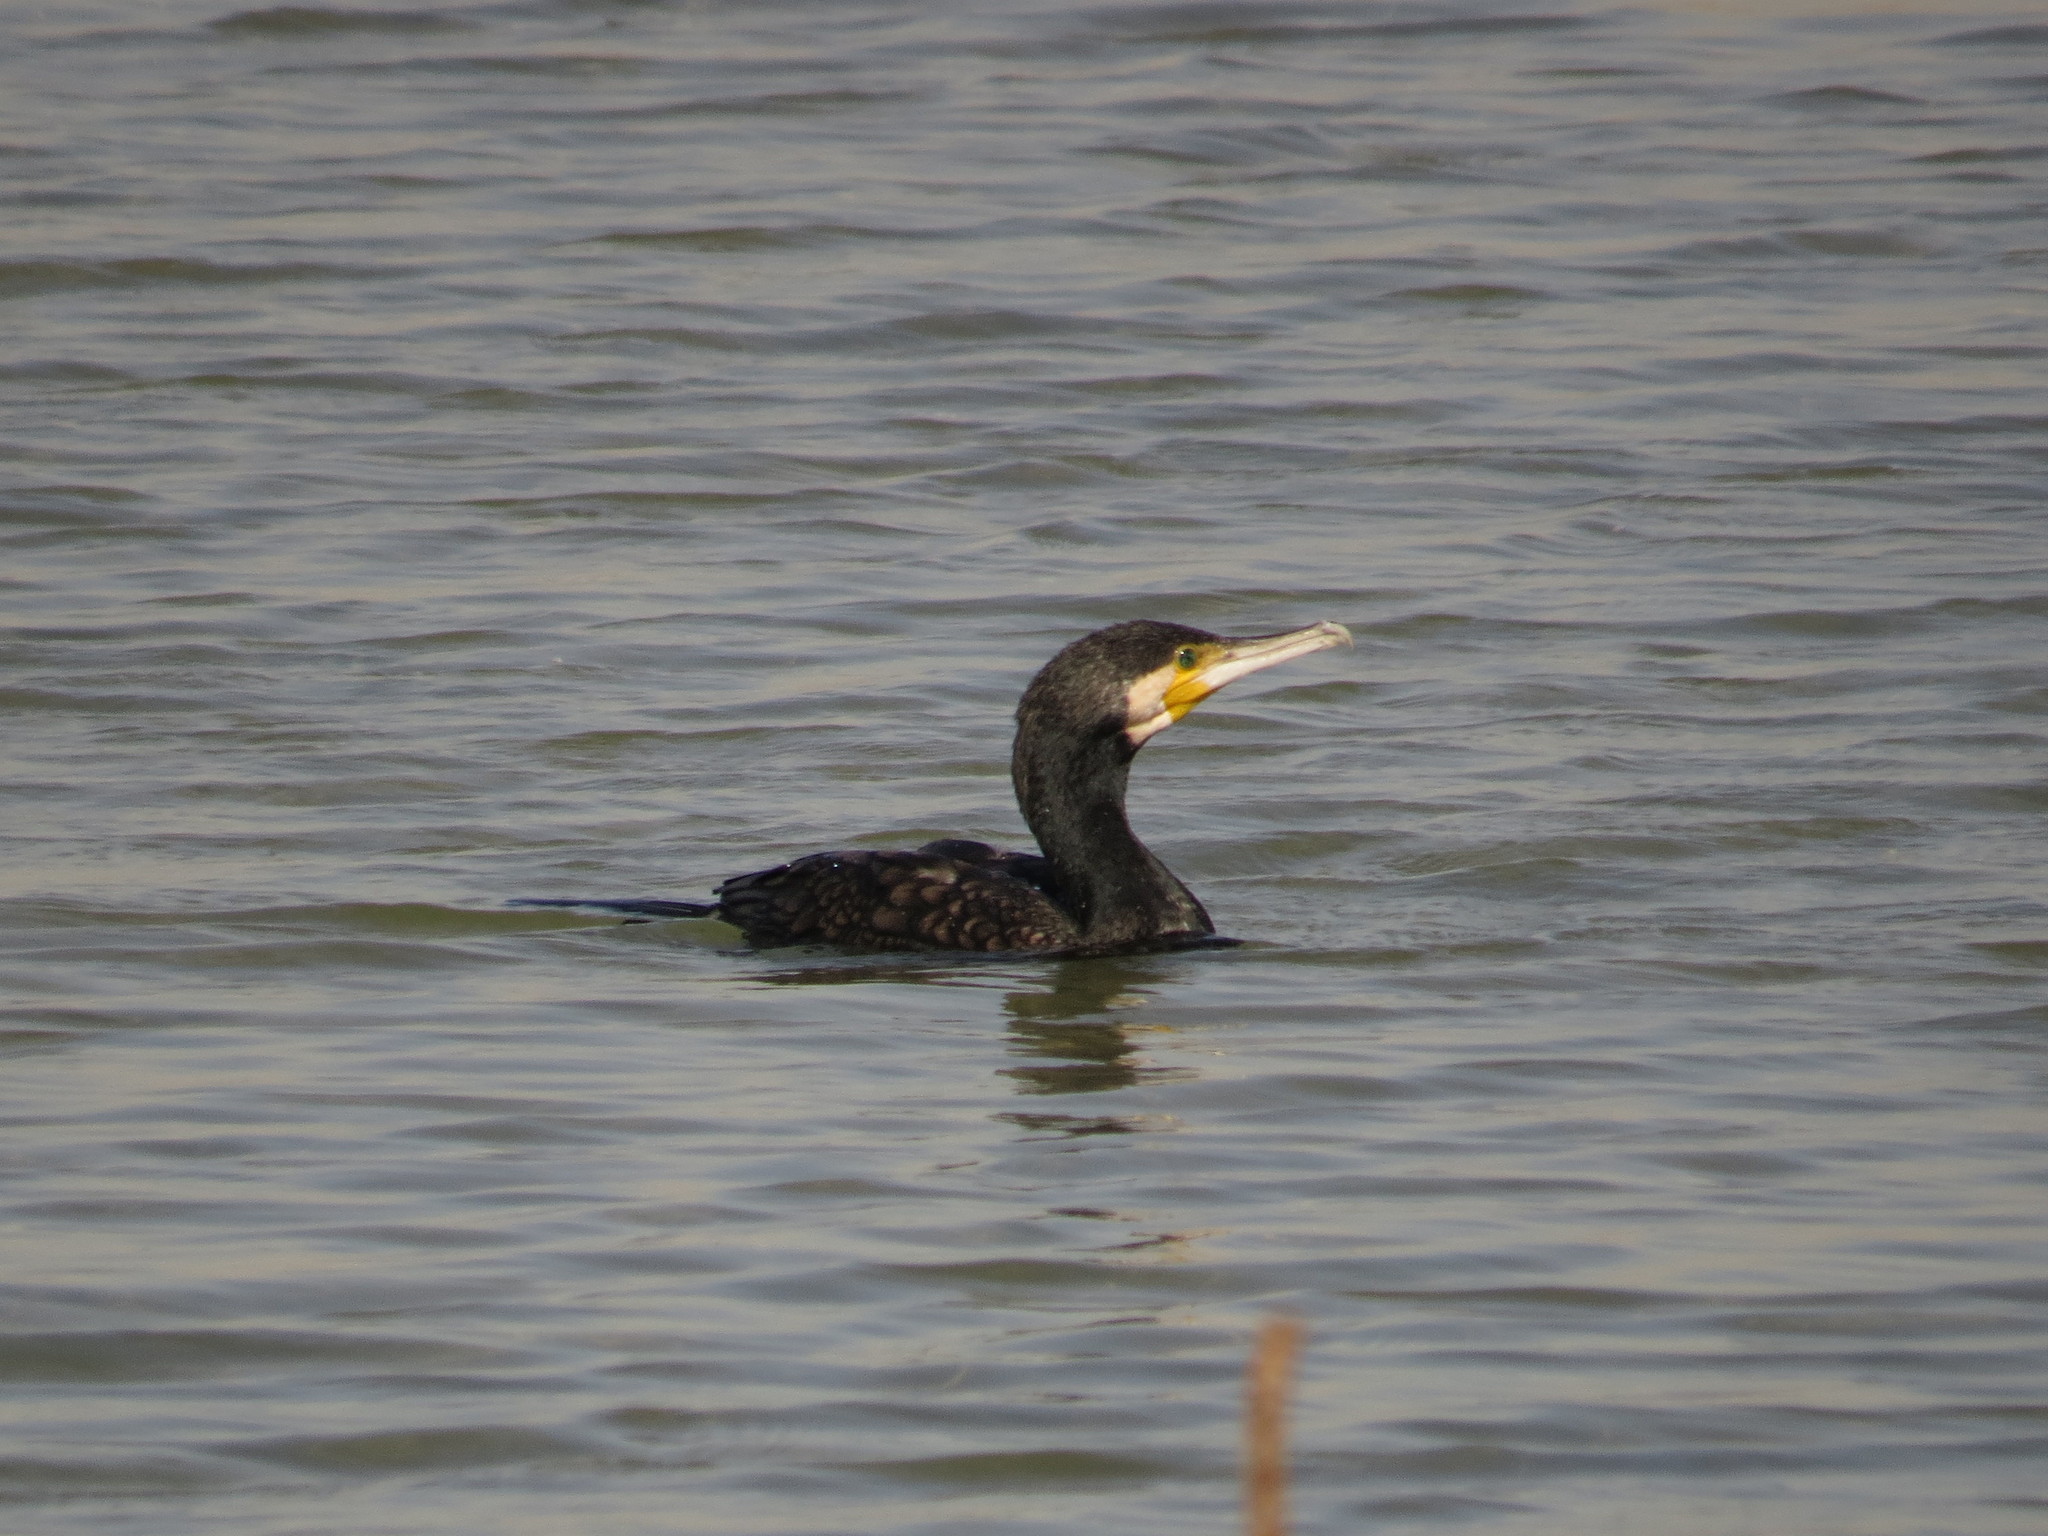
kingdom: Animalia
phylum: Chordata
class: Aves
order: Suliformes
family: Phalacrocoracidae
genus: Phalacrocorax
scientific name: Phalacrocorax carbo
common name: Great cormorant
